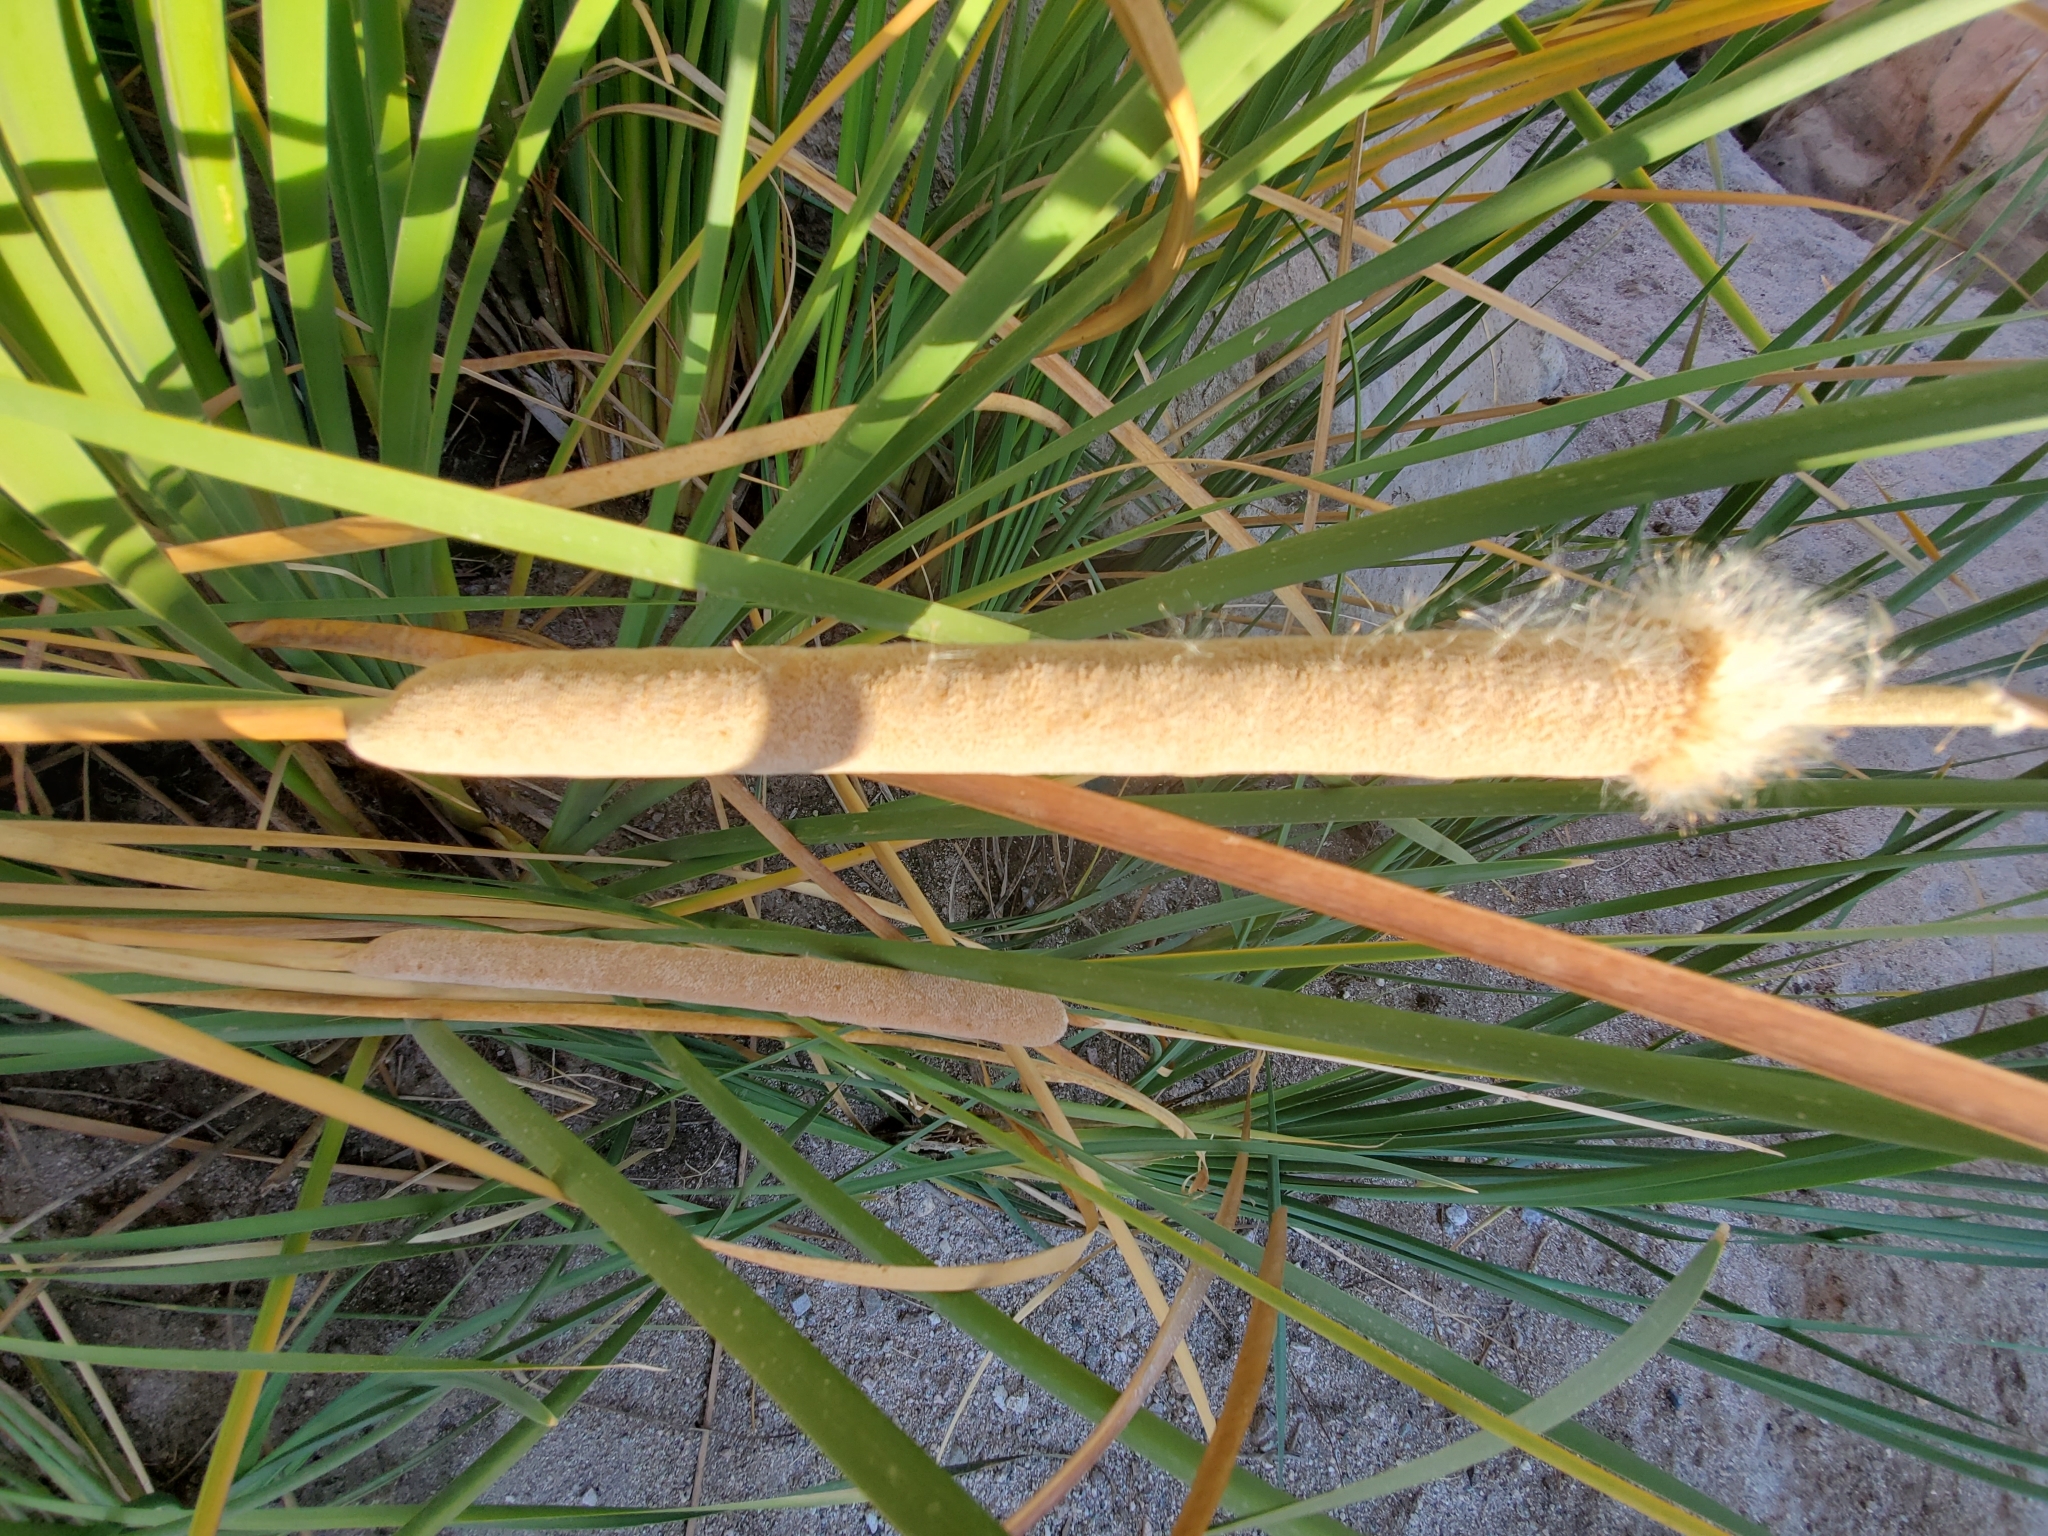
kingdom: Plantae
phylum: Tracheophyta
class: Liliopsida
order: Poales
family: Typhaceae
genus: Typha
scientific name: Typha domingensis
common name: Southern cattail
